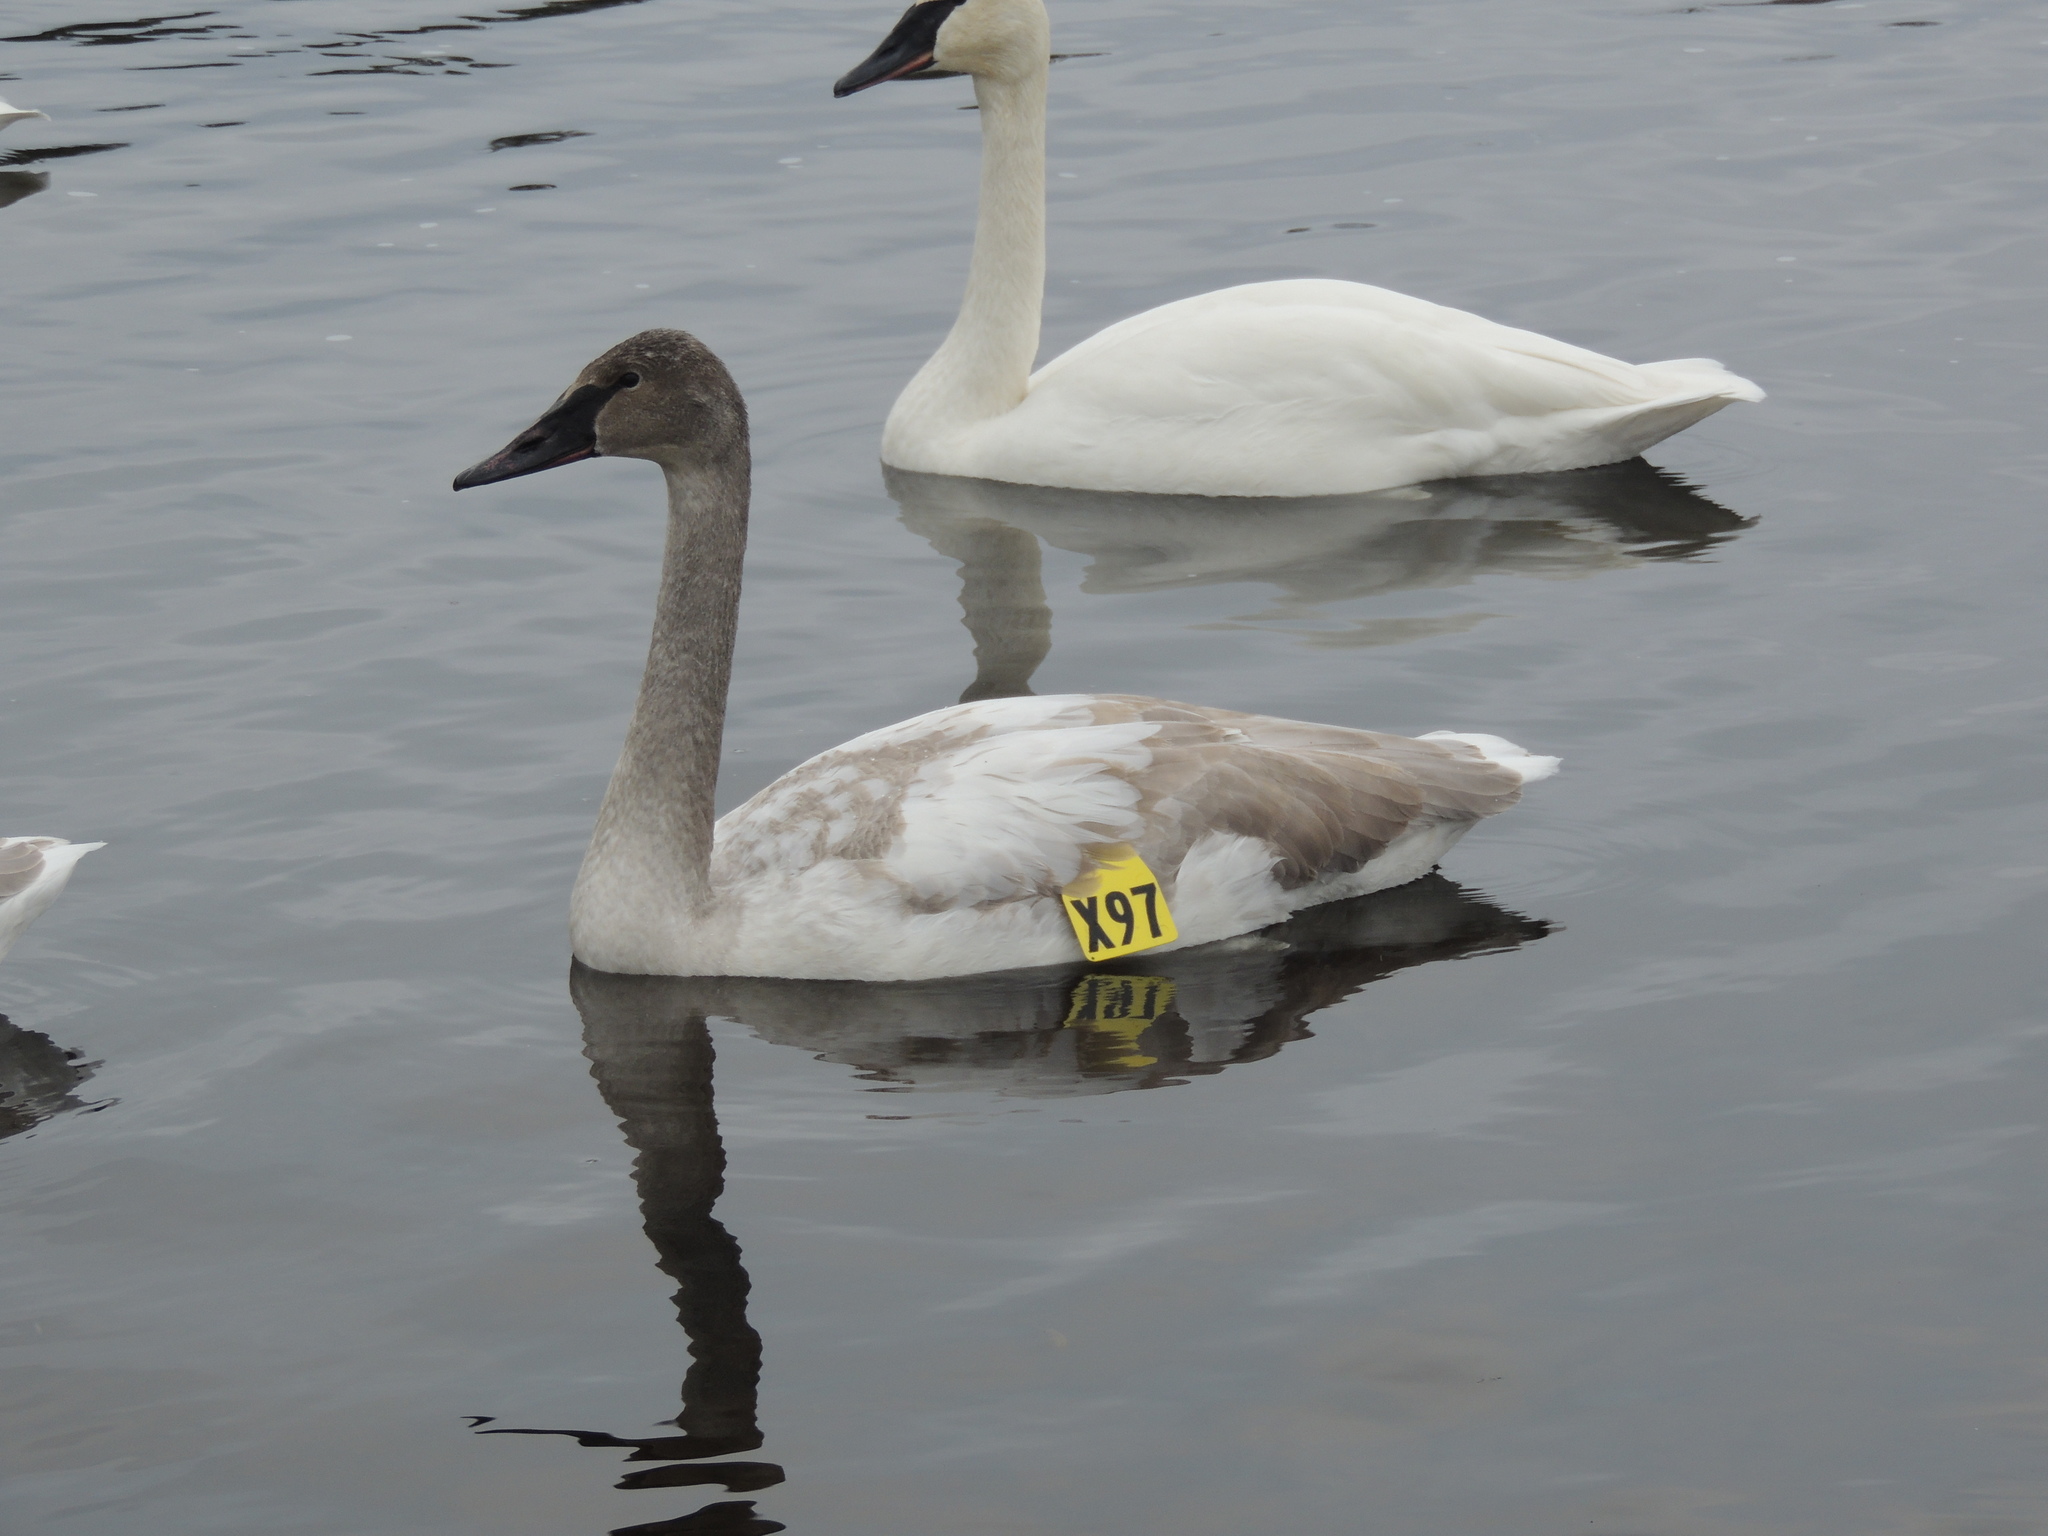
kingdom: Animalia
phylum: Chordata
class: Aves
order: Anseriformes
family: Anatidae
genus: Cygnus
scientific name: Cygnus buccinator
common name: Trumpeter swan
